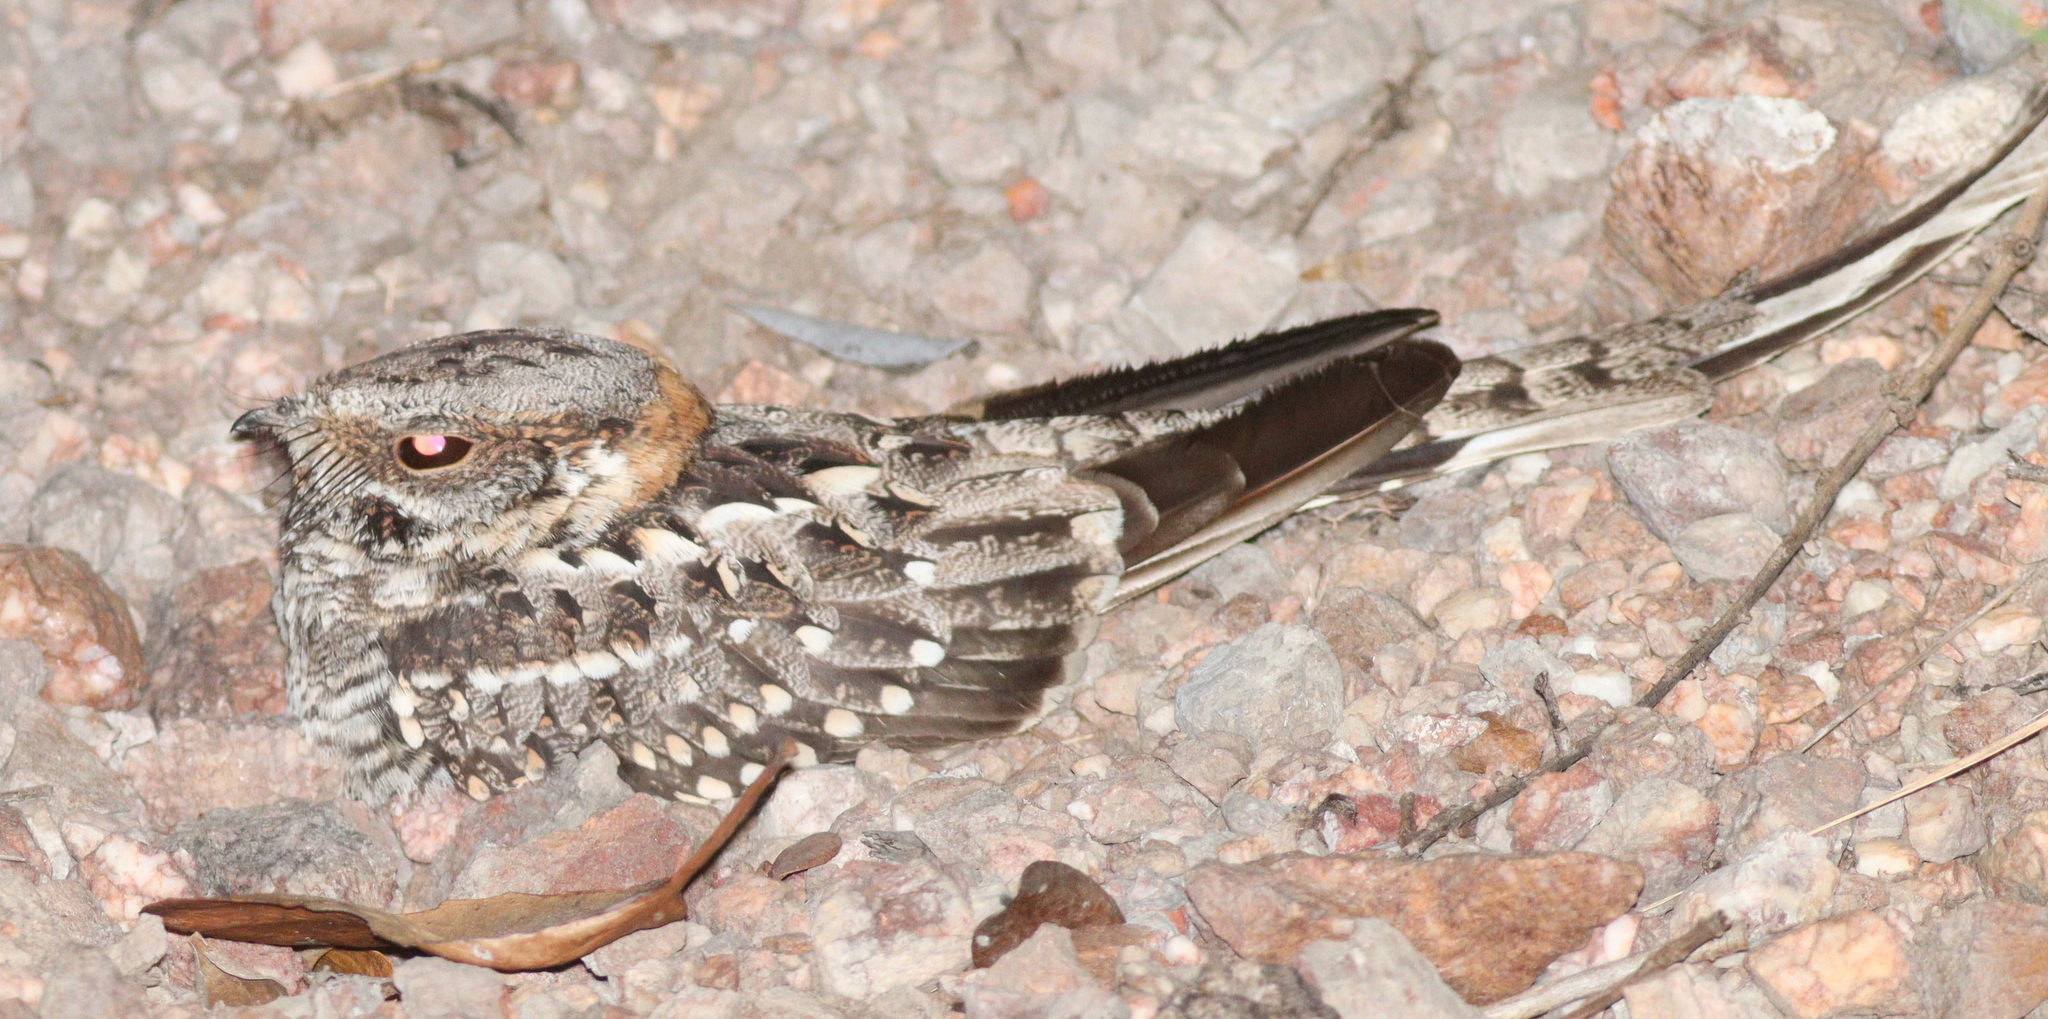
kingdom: Animalia
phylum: Chordata
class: Aves
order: Caprimulgiformes
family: Caprimulgidae
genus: Hydropsalis
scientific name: Hydropsalis torquata
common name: Scissor-tailed nightjar
